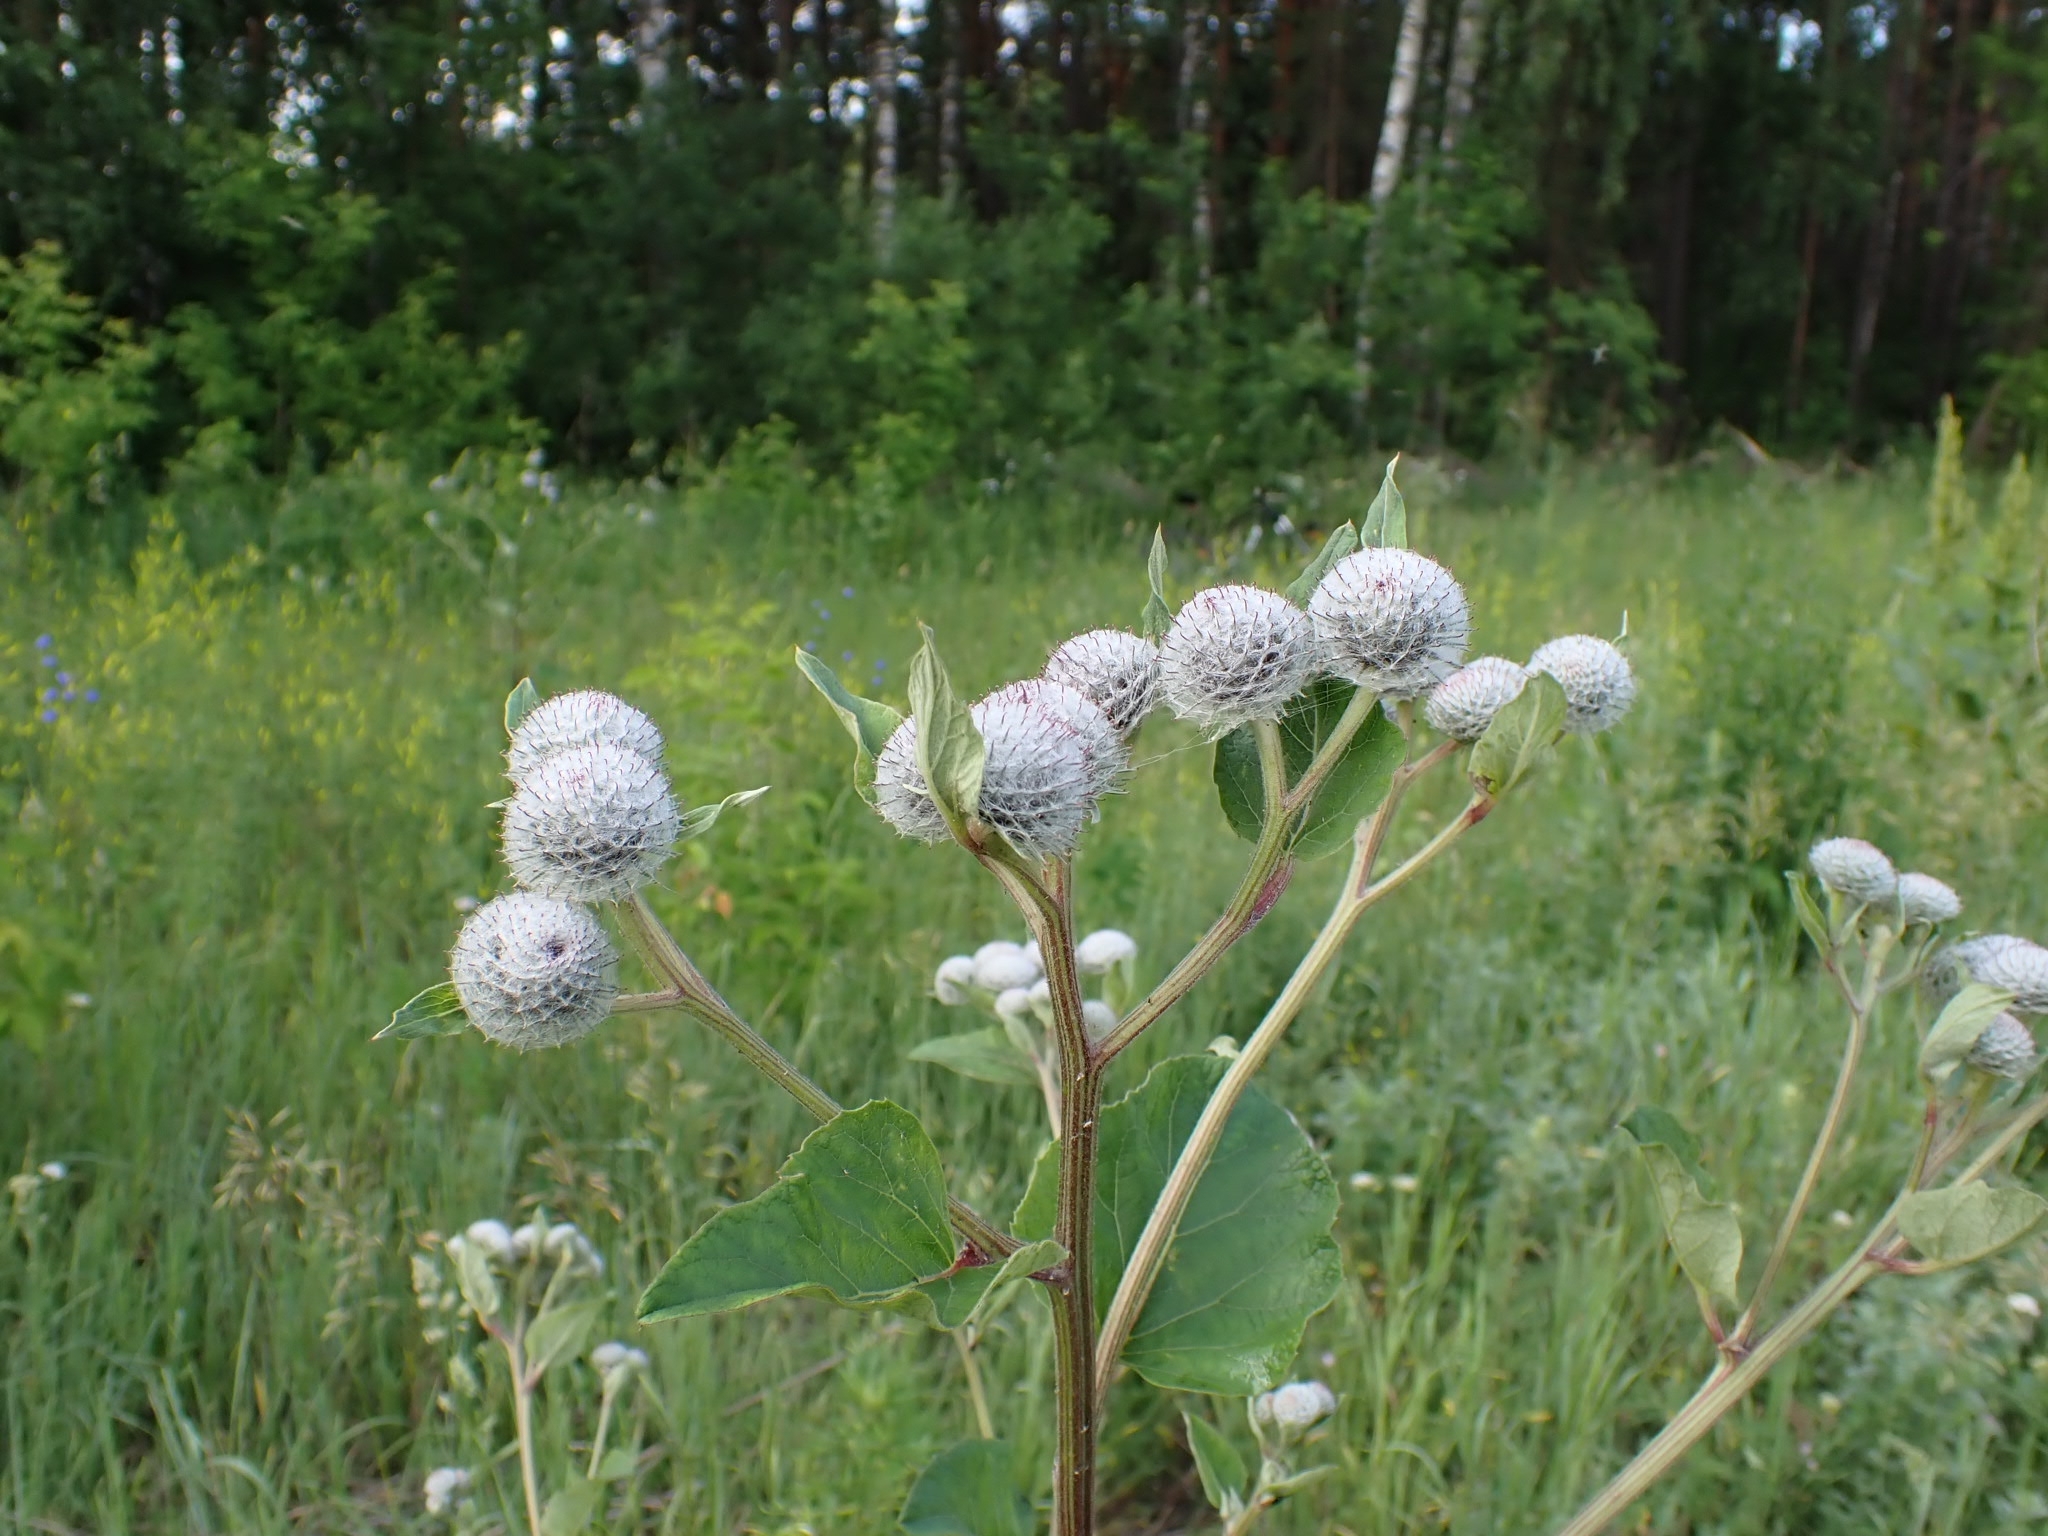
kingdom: Plantae
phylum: Tracheophyta
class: Magnoliopsida
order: Asterales
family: Asteraceae
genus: Arctium
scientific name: Arctium tomentosum
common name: Woolly burdock
